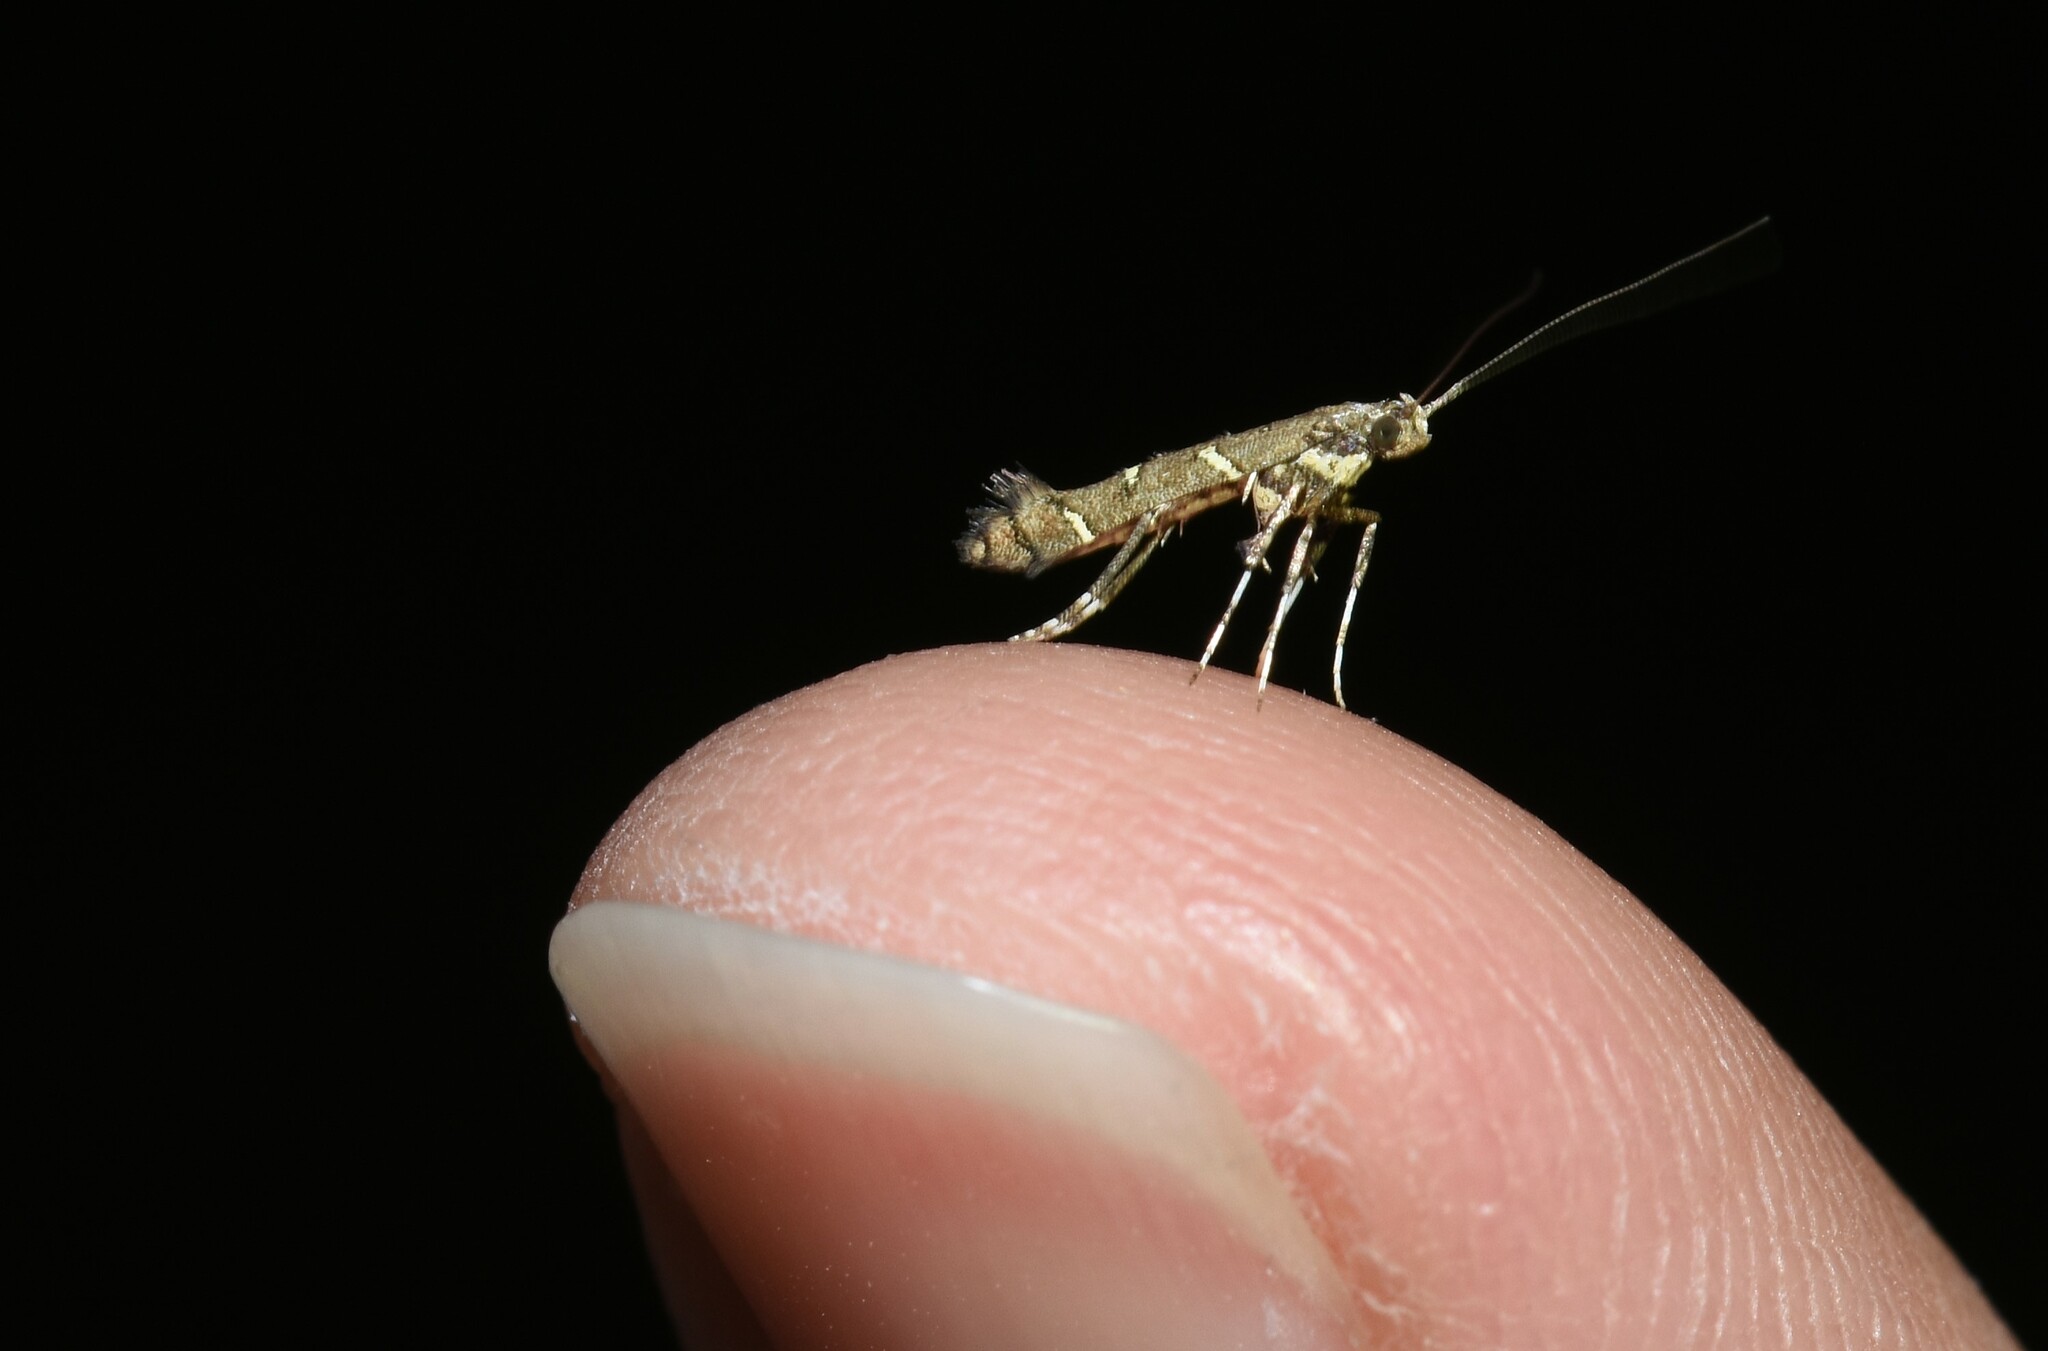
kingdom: Animalia
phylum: Arthropoda
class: Insecta
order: Lepidoptera
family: Gracillariidae
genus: Caloptilia
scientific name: Caloptilia triadicae
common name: Tallow leaf roller
